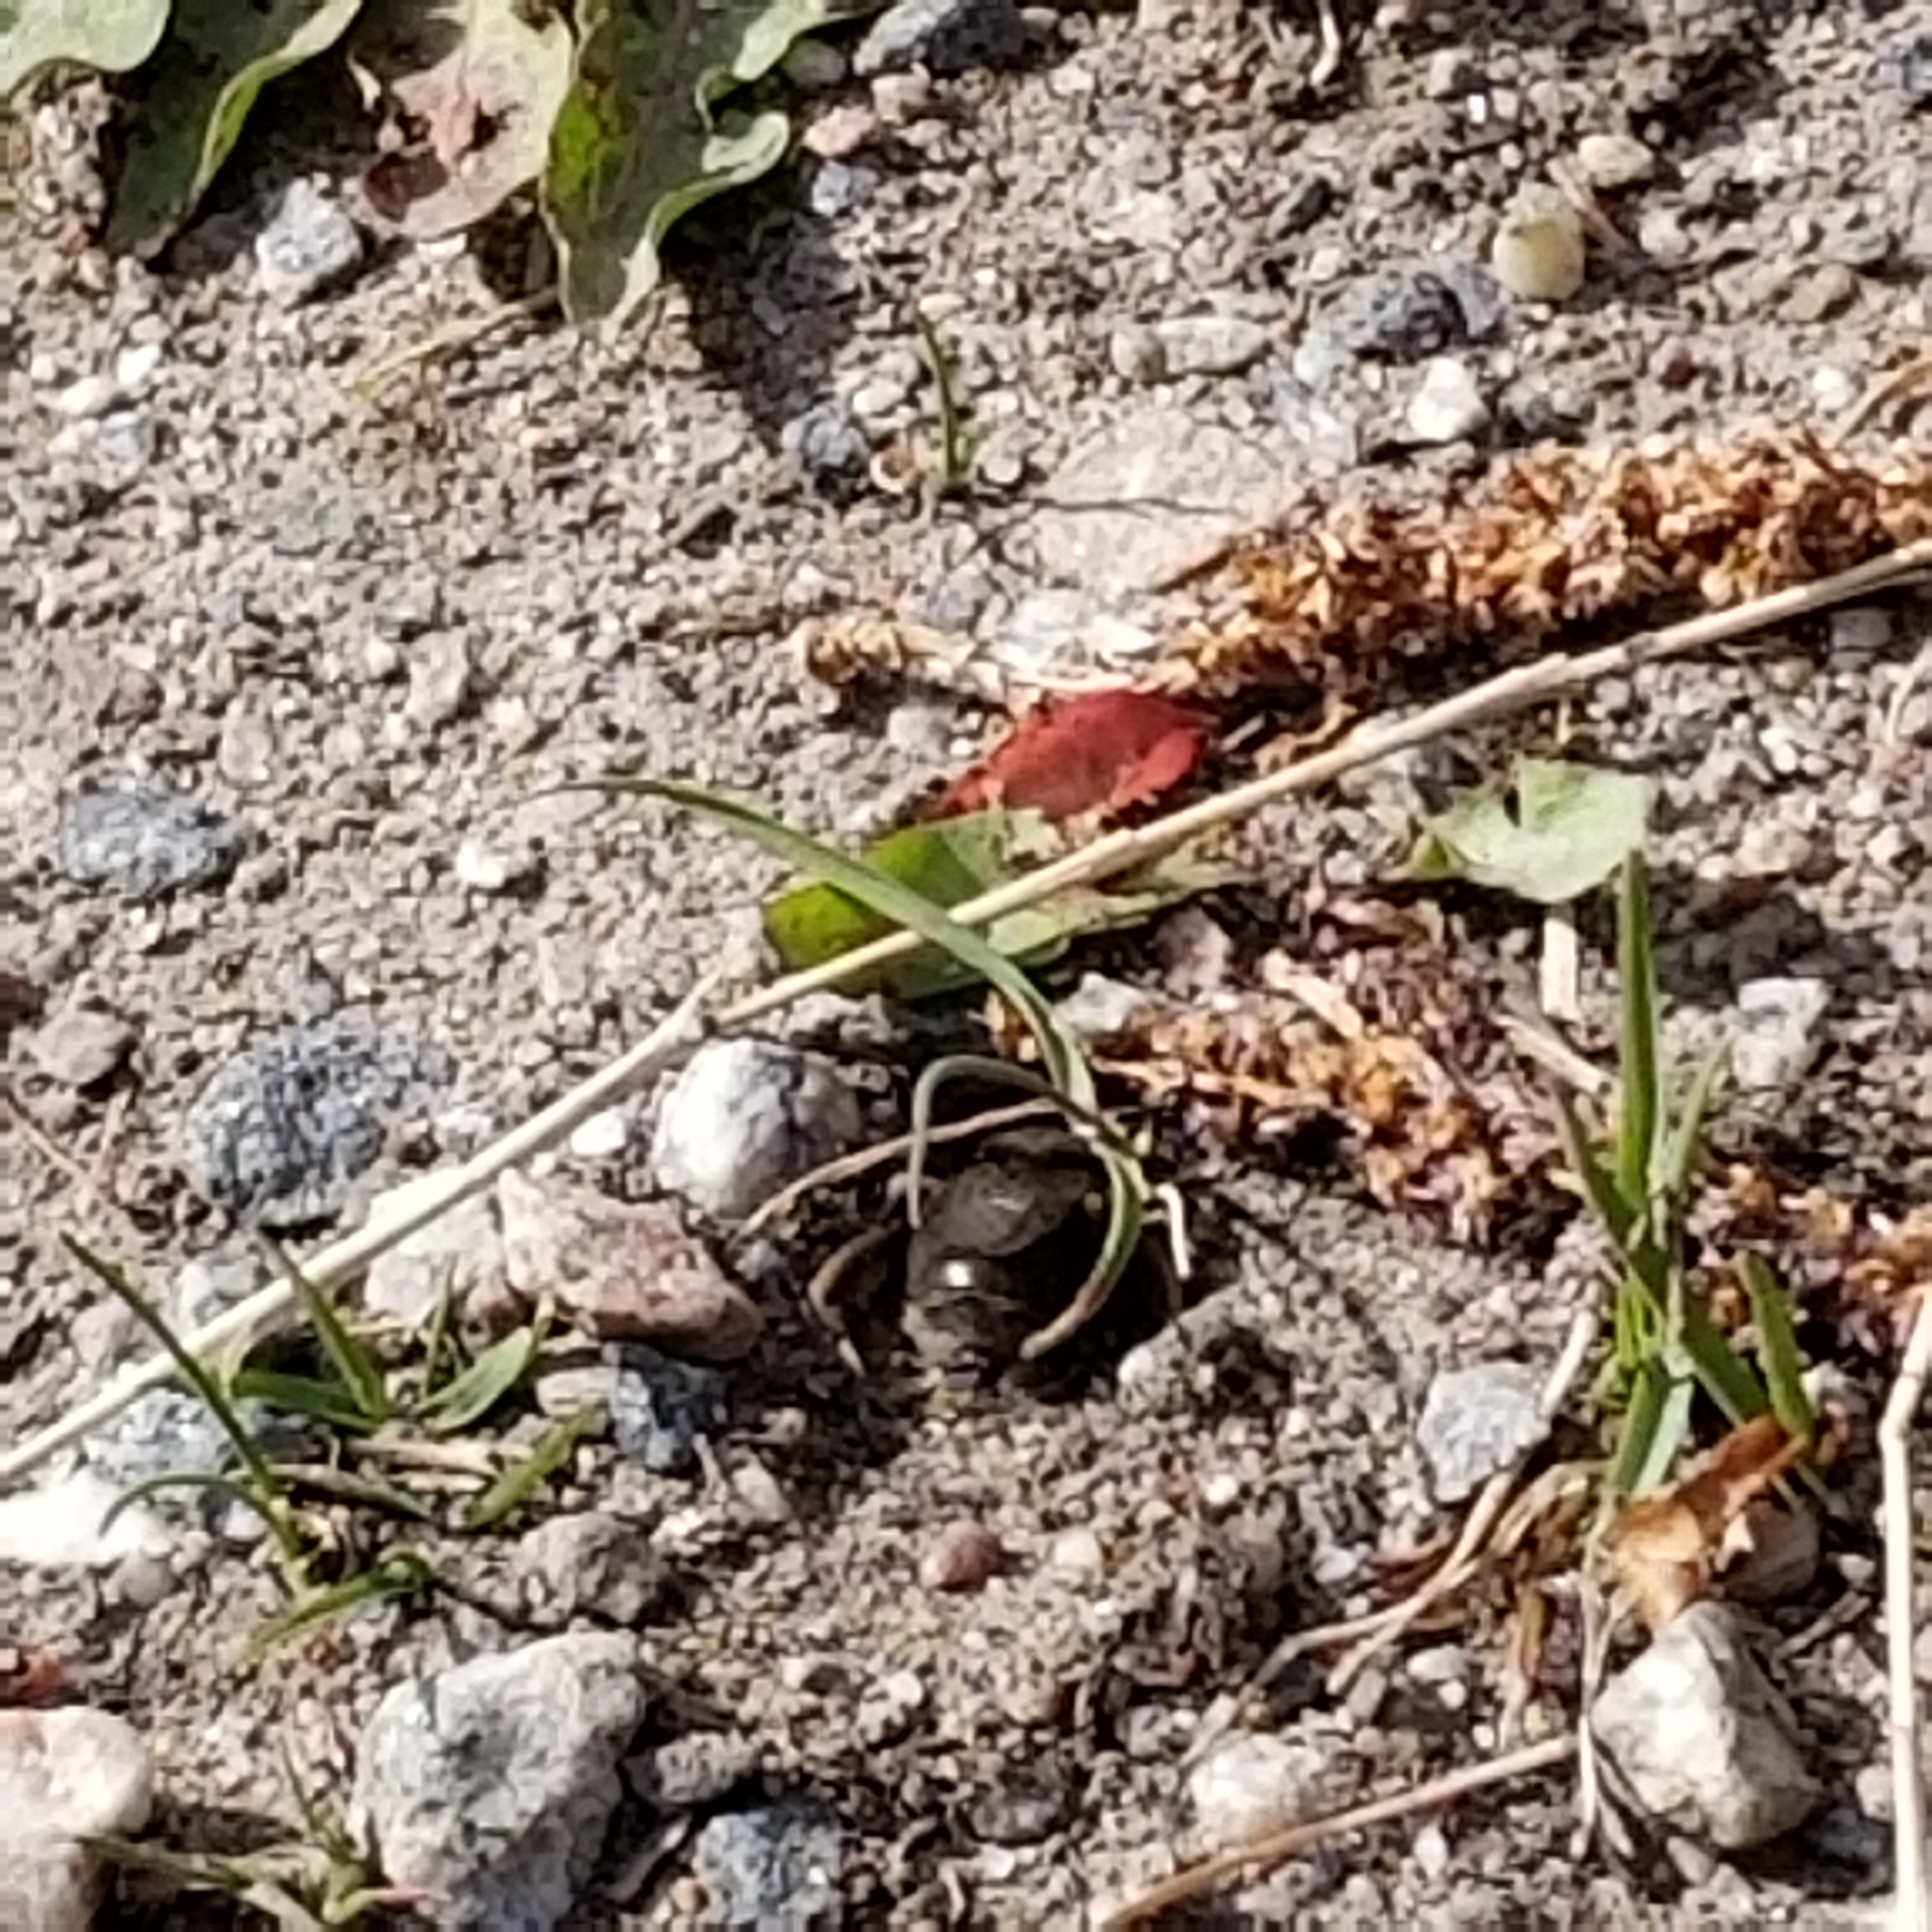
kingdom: Animalia
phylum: Arthropoda
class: Insecta
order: Hymenoptera
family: Colletidae
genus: Colletes
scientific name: Colletes cunicularius
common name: Early colletes
